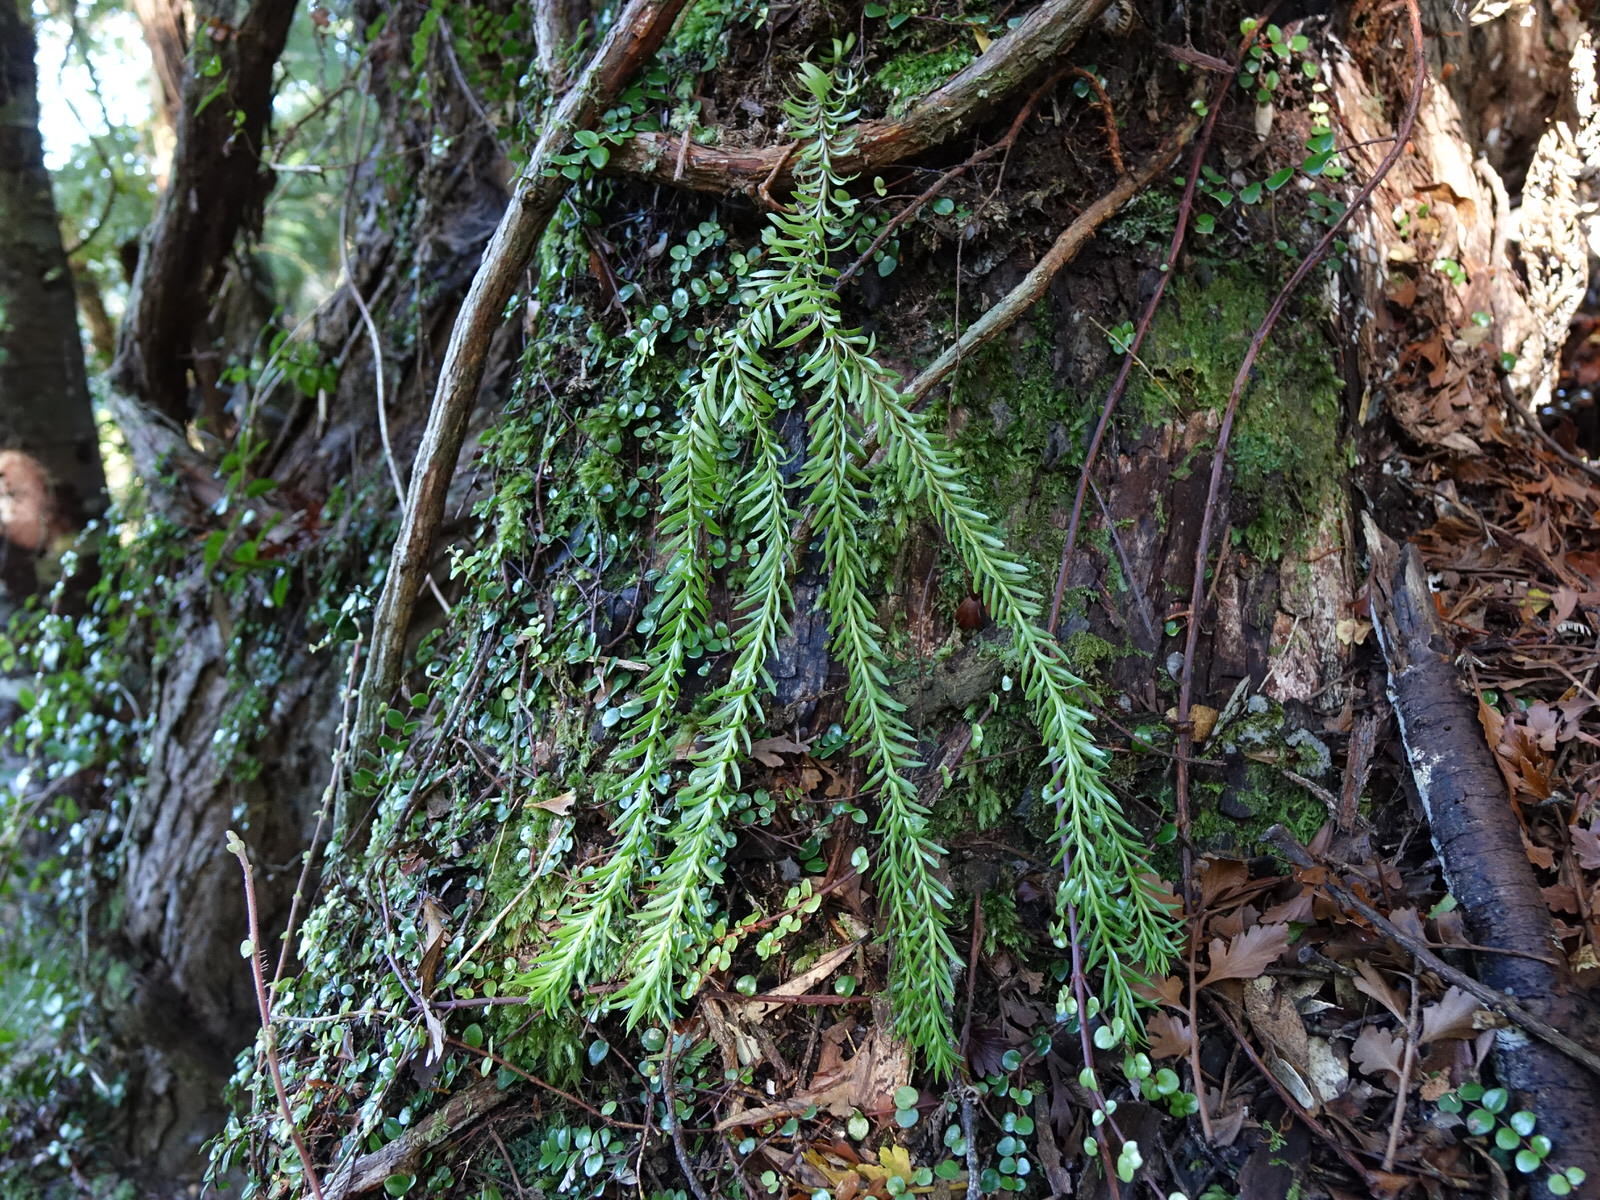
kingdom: Plantae
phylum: Tracheophyta
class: Lycopodiopsida
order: Lycopodiales
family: Lycopodiaceae
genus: Phlegmariurus
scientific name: Phlegmariurus varius
